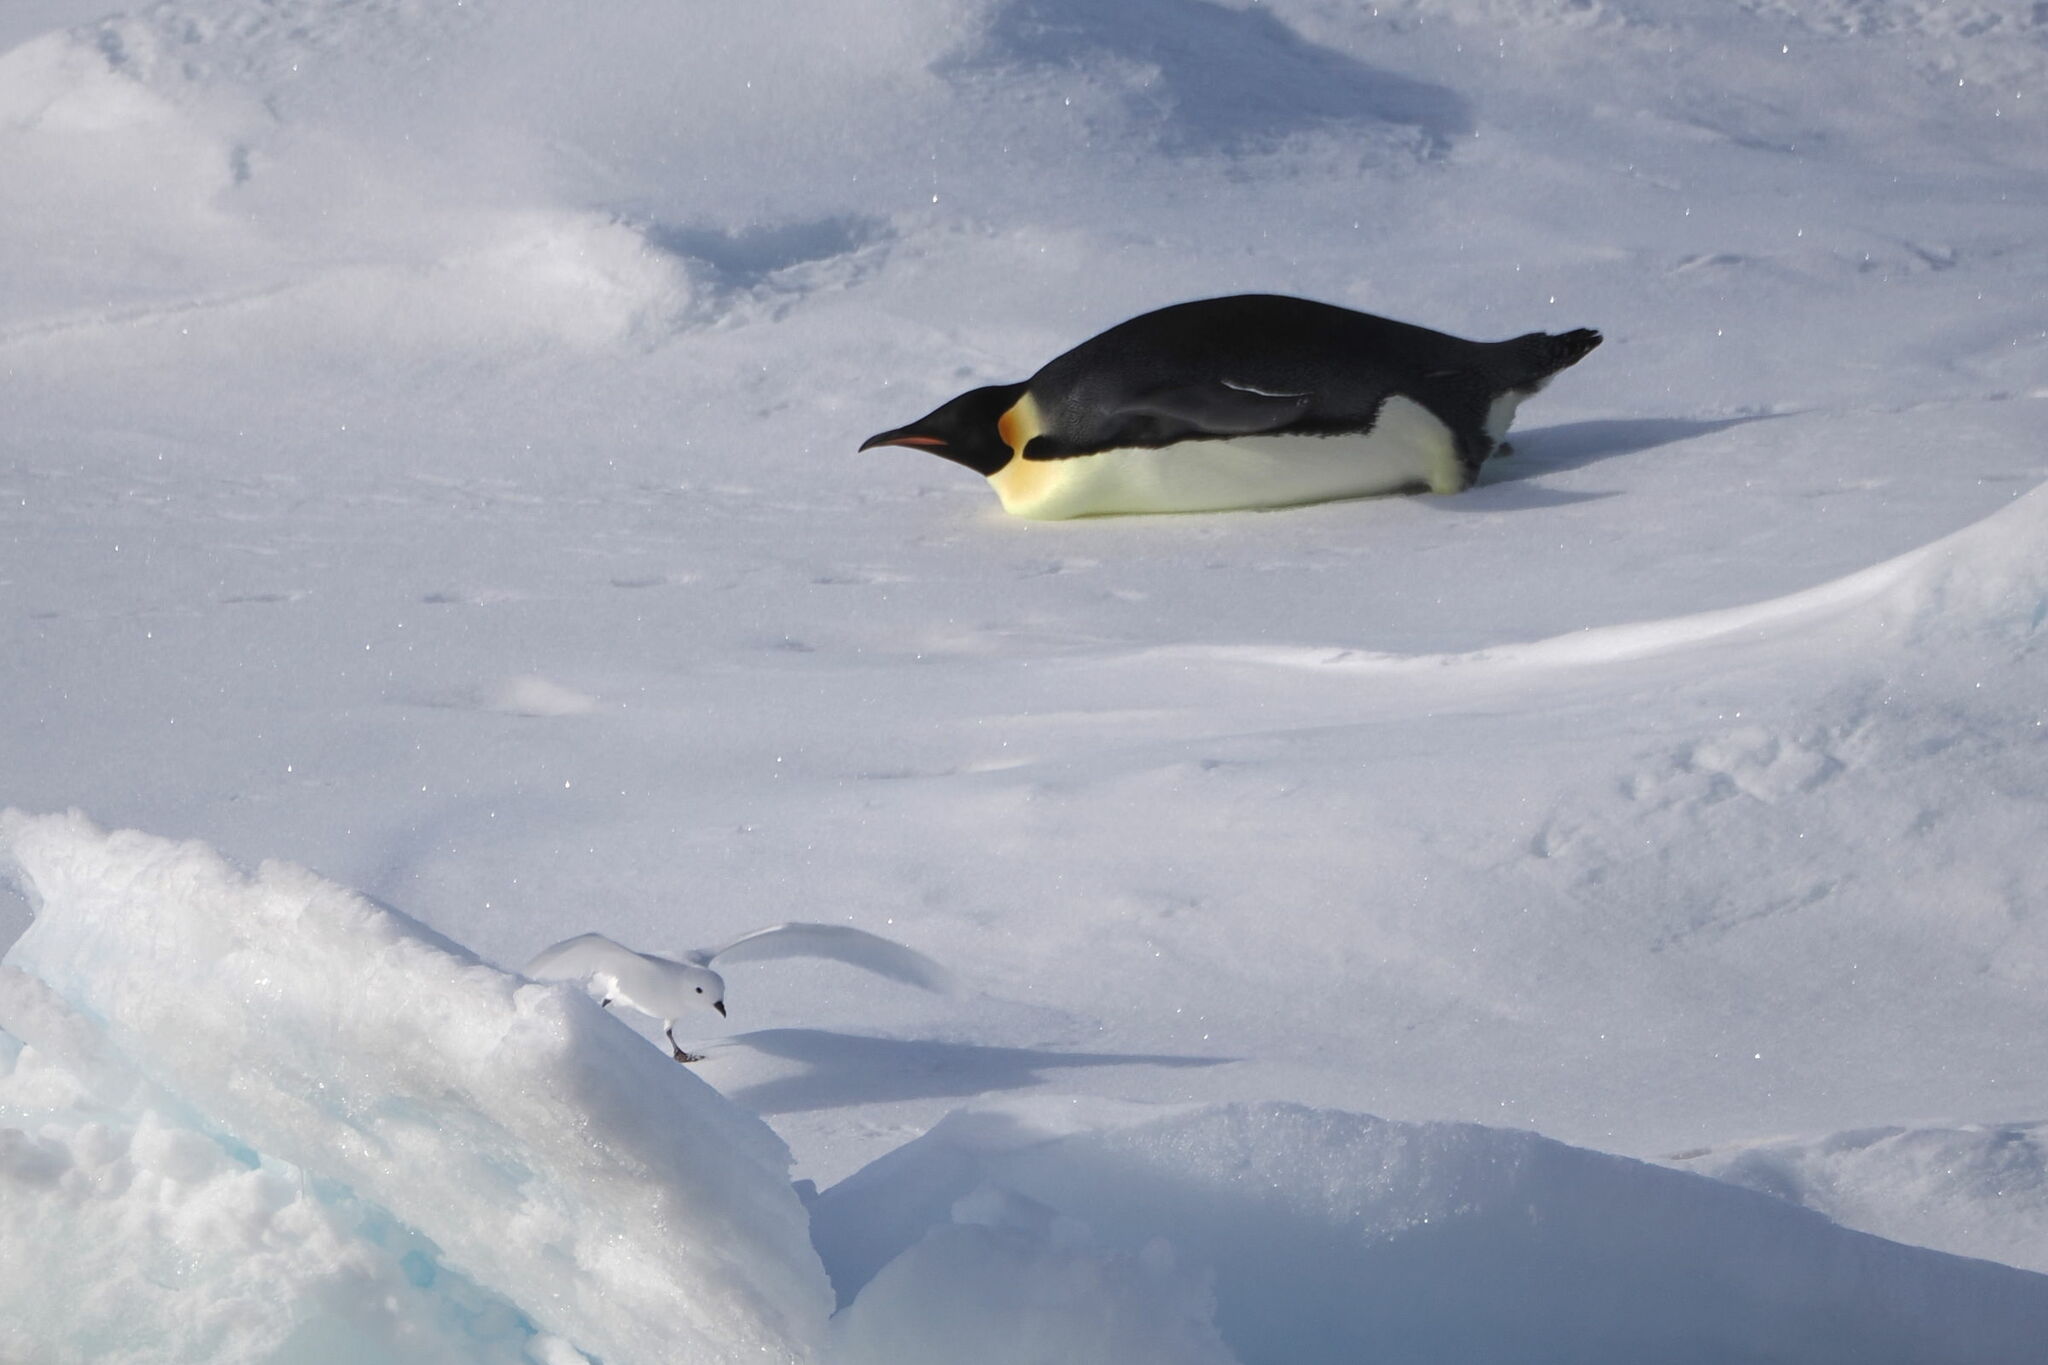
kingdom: Animalia
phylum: Chordata
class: Aves
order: Sphenisciformes
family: Spheniscidae
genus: Aptenodytes
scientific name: Aptenodytes forsteri
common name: Emperor penguin
